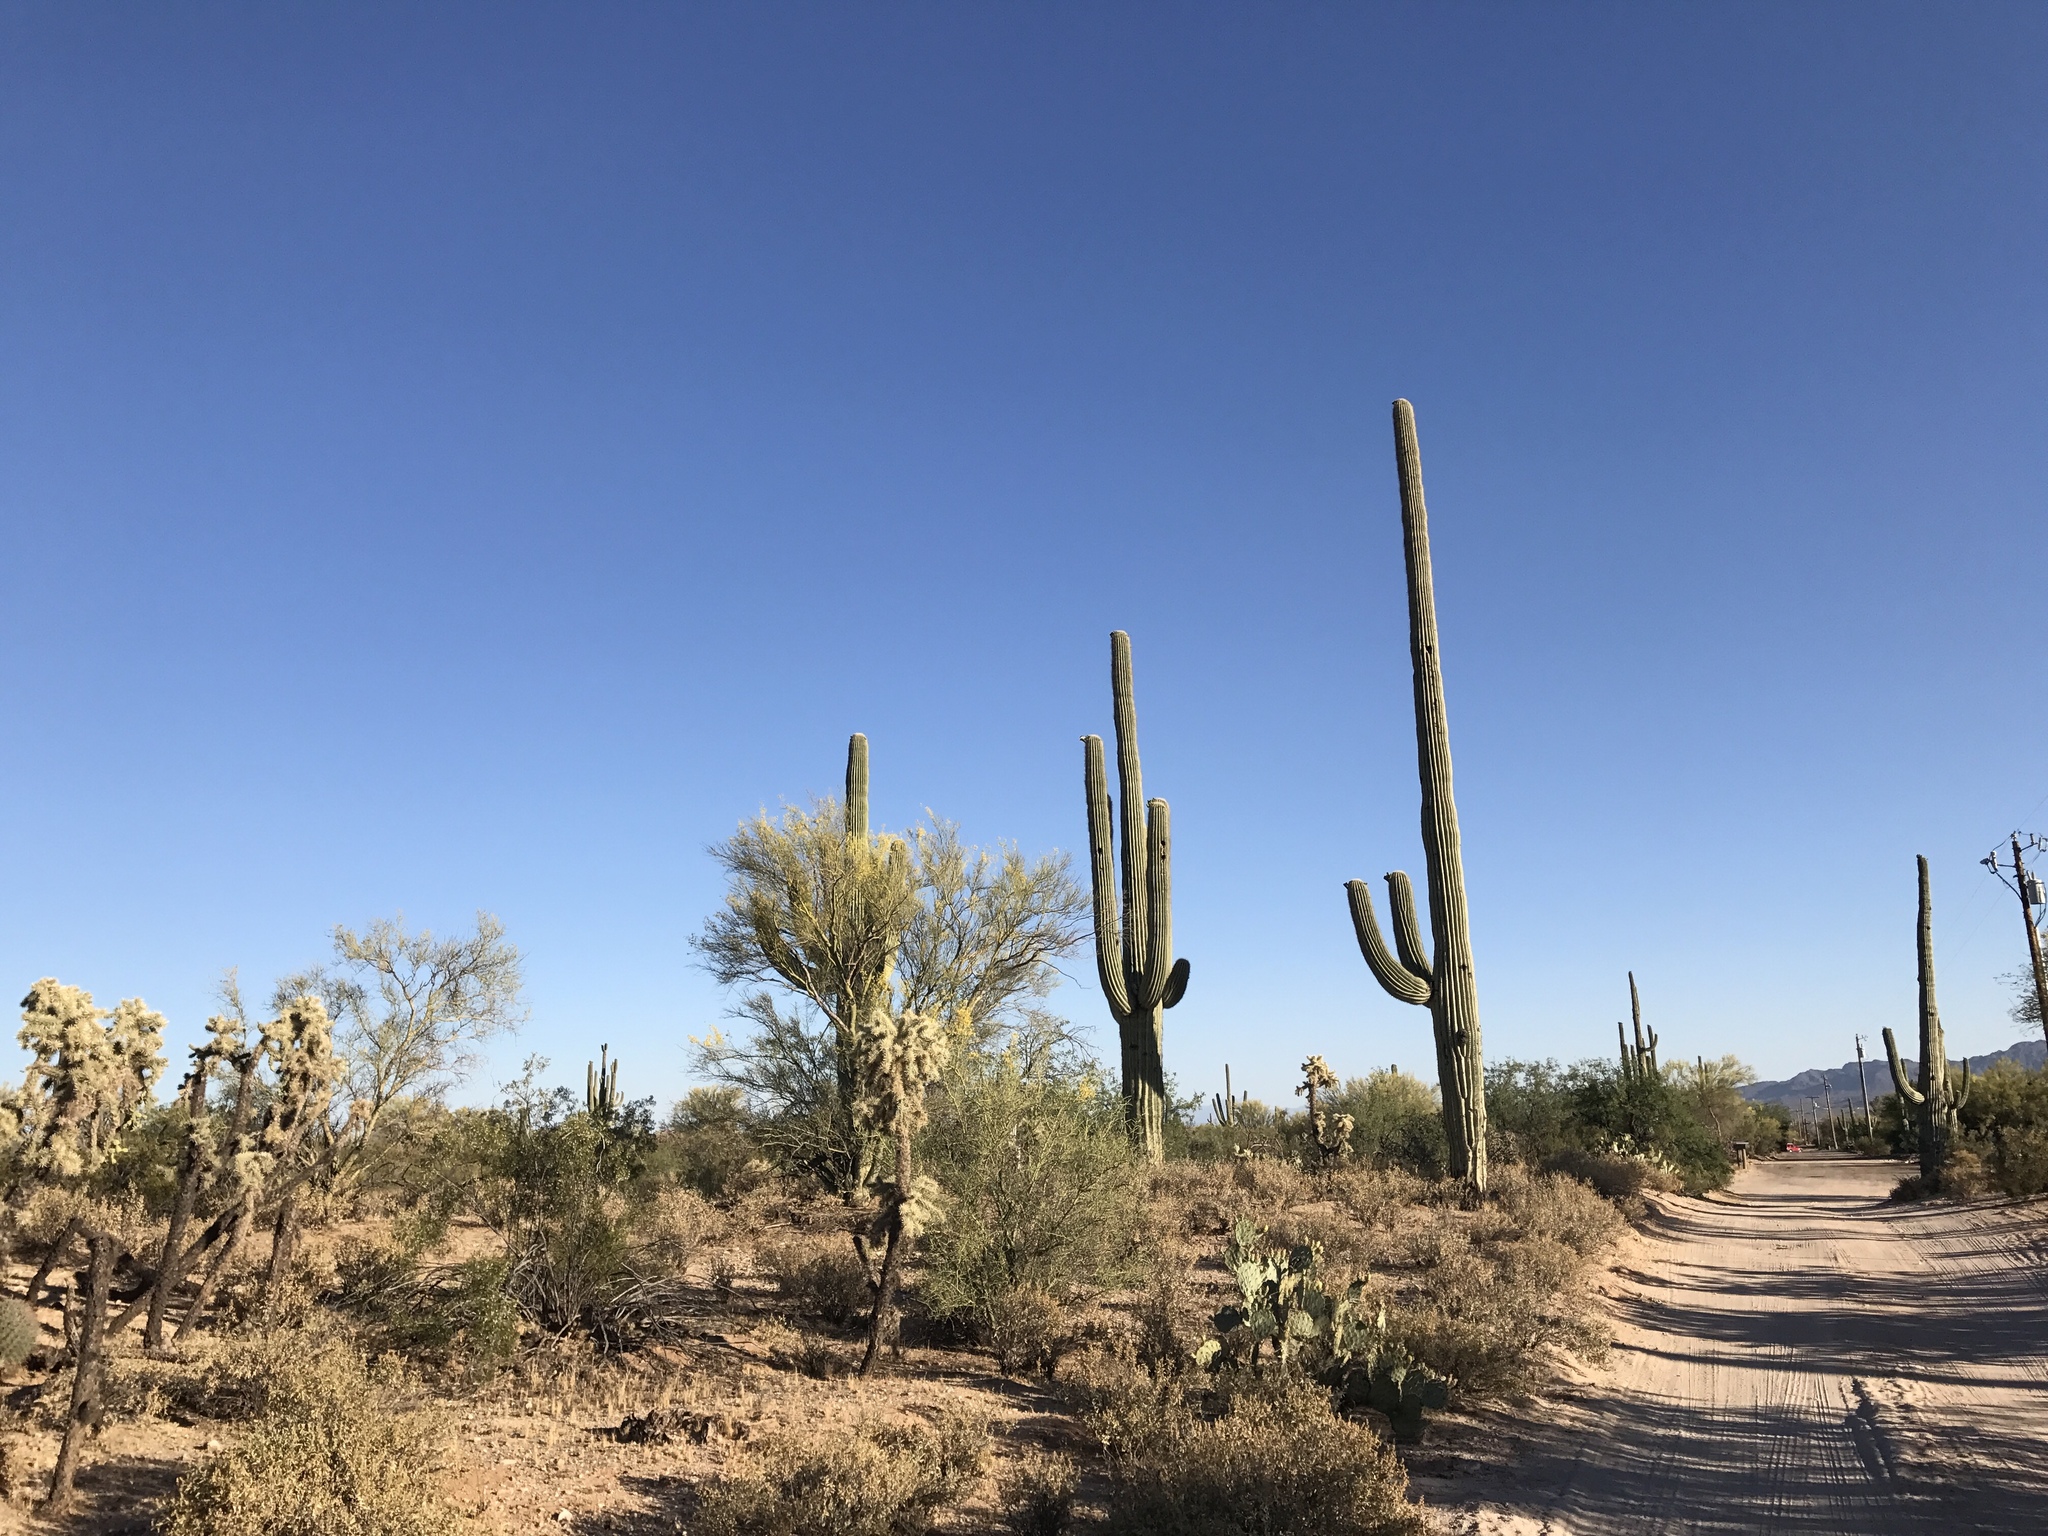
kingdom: Plantae
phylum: Tracheophyta
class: Magnoliopsida
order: Caryophyllales
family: Cactaceae
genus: Carnegiea
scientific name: Carnegiea gigantea
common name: Saguaro
